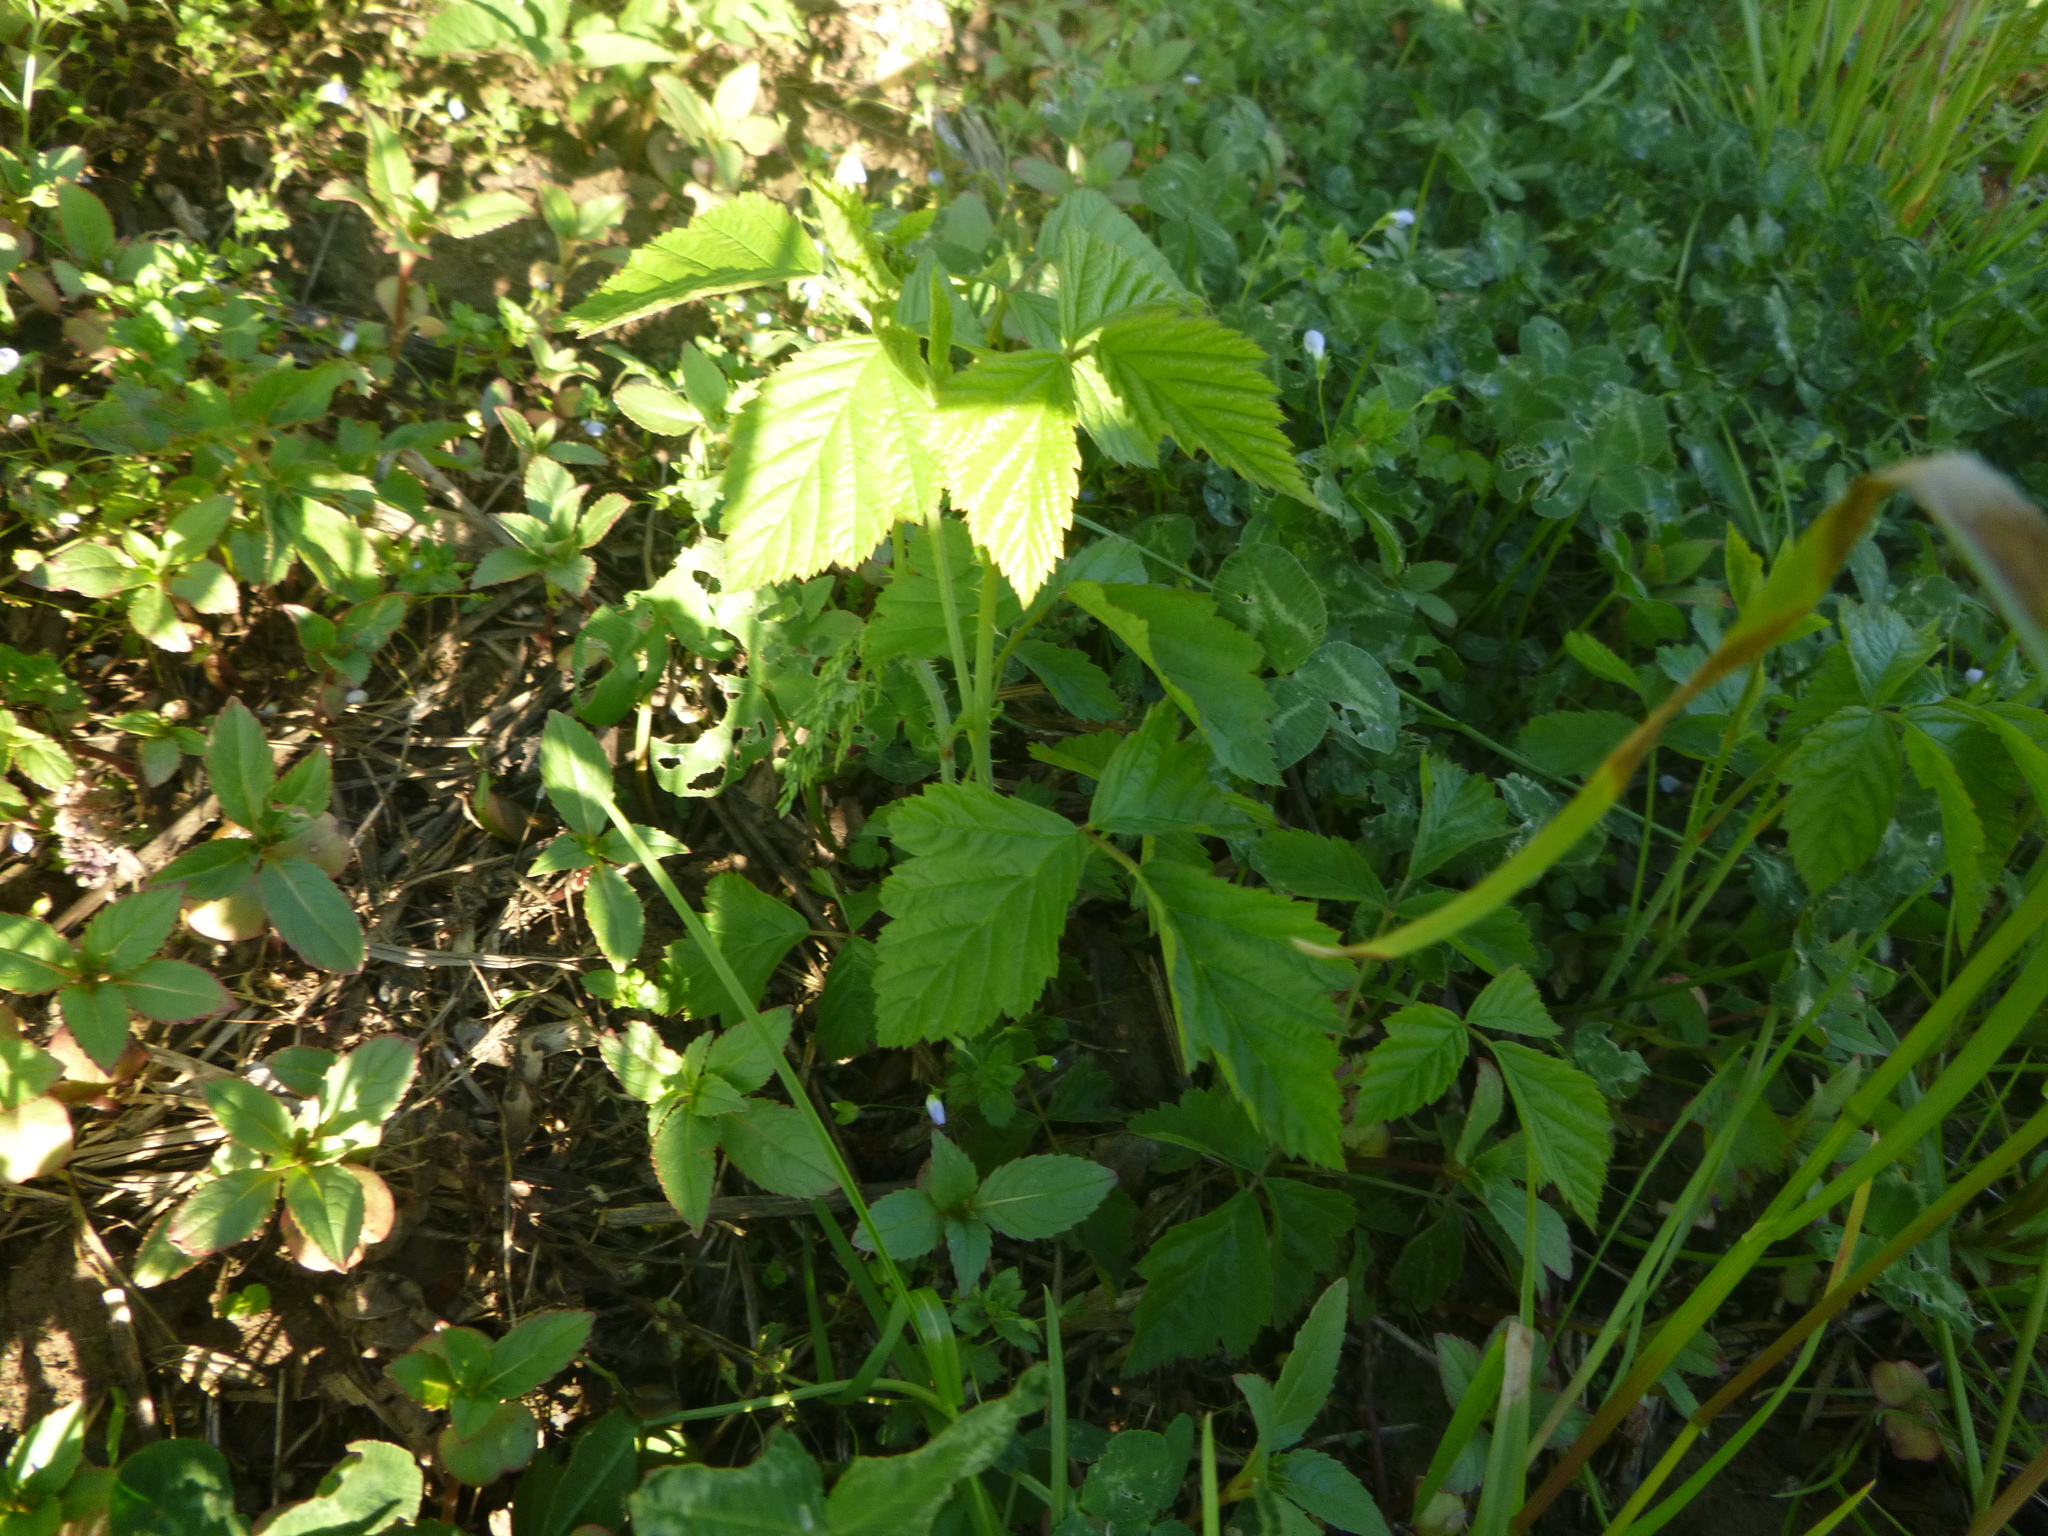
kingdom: Plantae
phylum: Tracheophyta
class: Magnoliopsida
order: Rosales
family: Rosaceae
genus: Rubus
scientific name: Rubus caesius
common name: Dewberry
